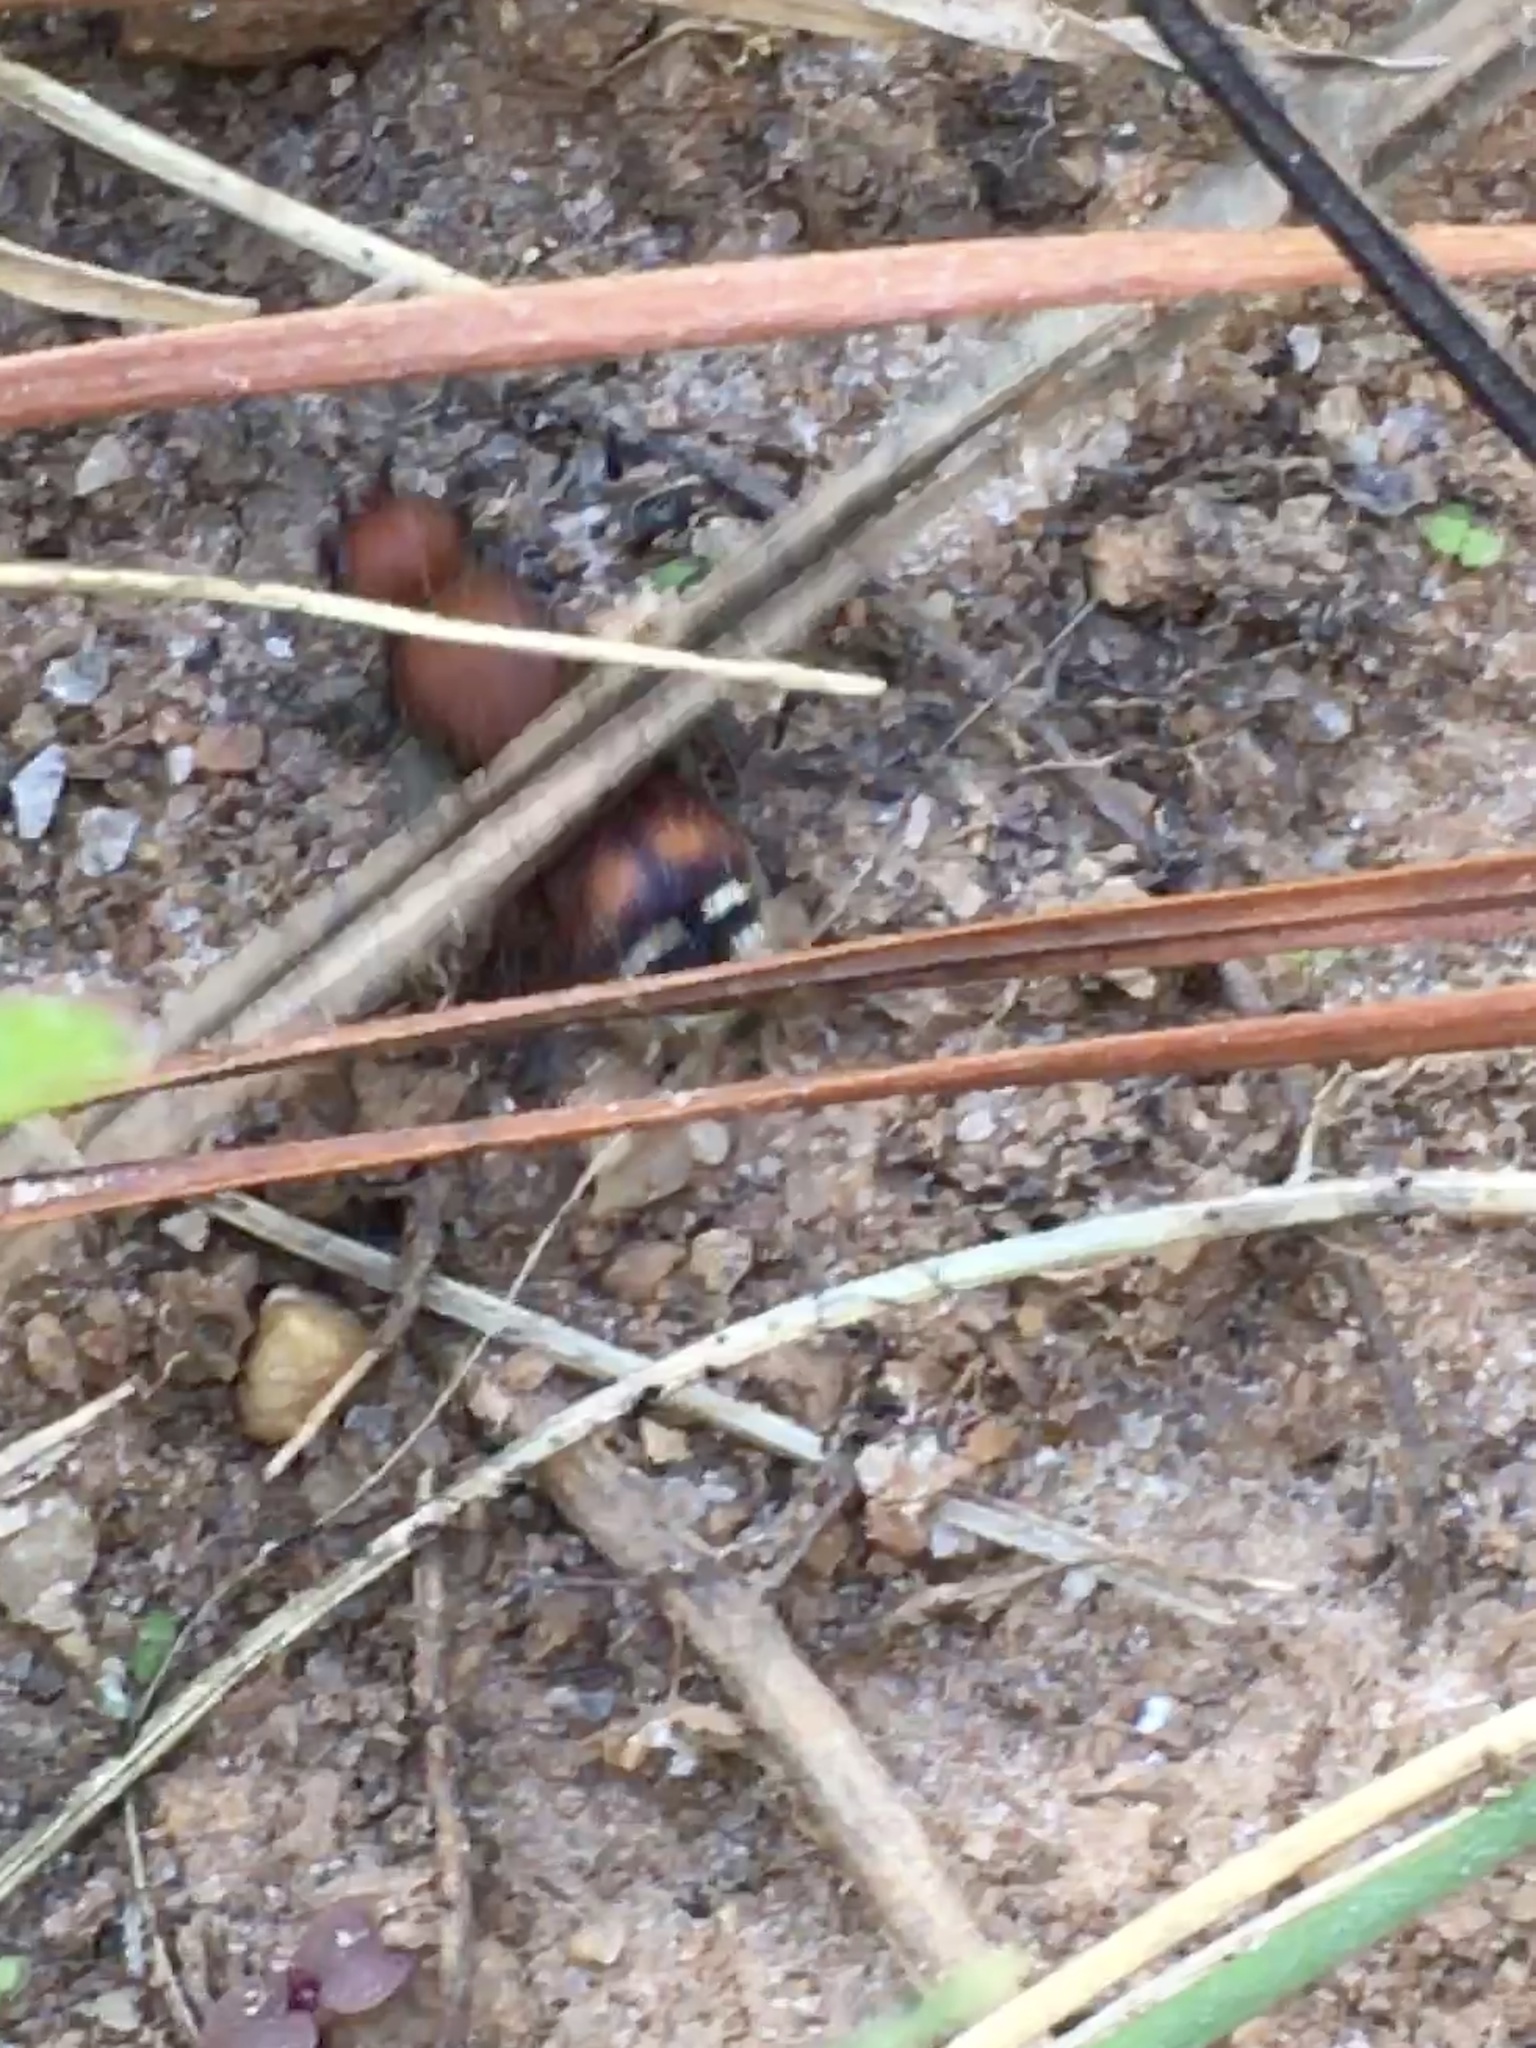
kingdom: Animalia
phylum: Arthropoda
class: Insecta
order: Hymenoptera
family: Mutillidae
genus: Dasymutilla
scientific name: Dasymutilla
